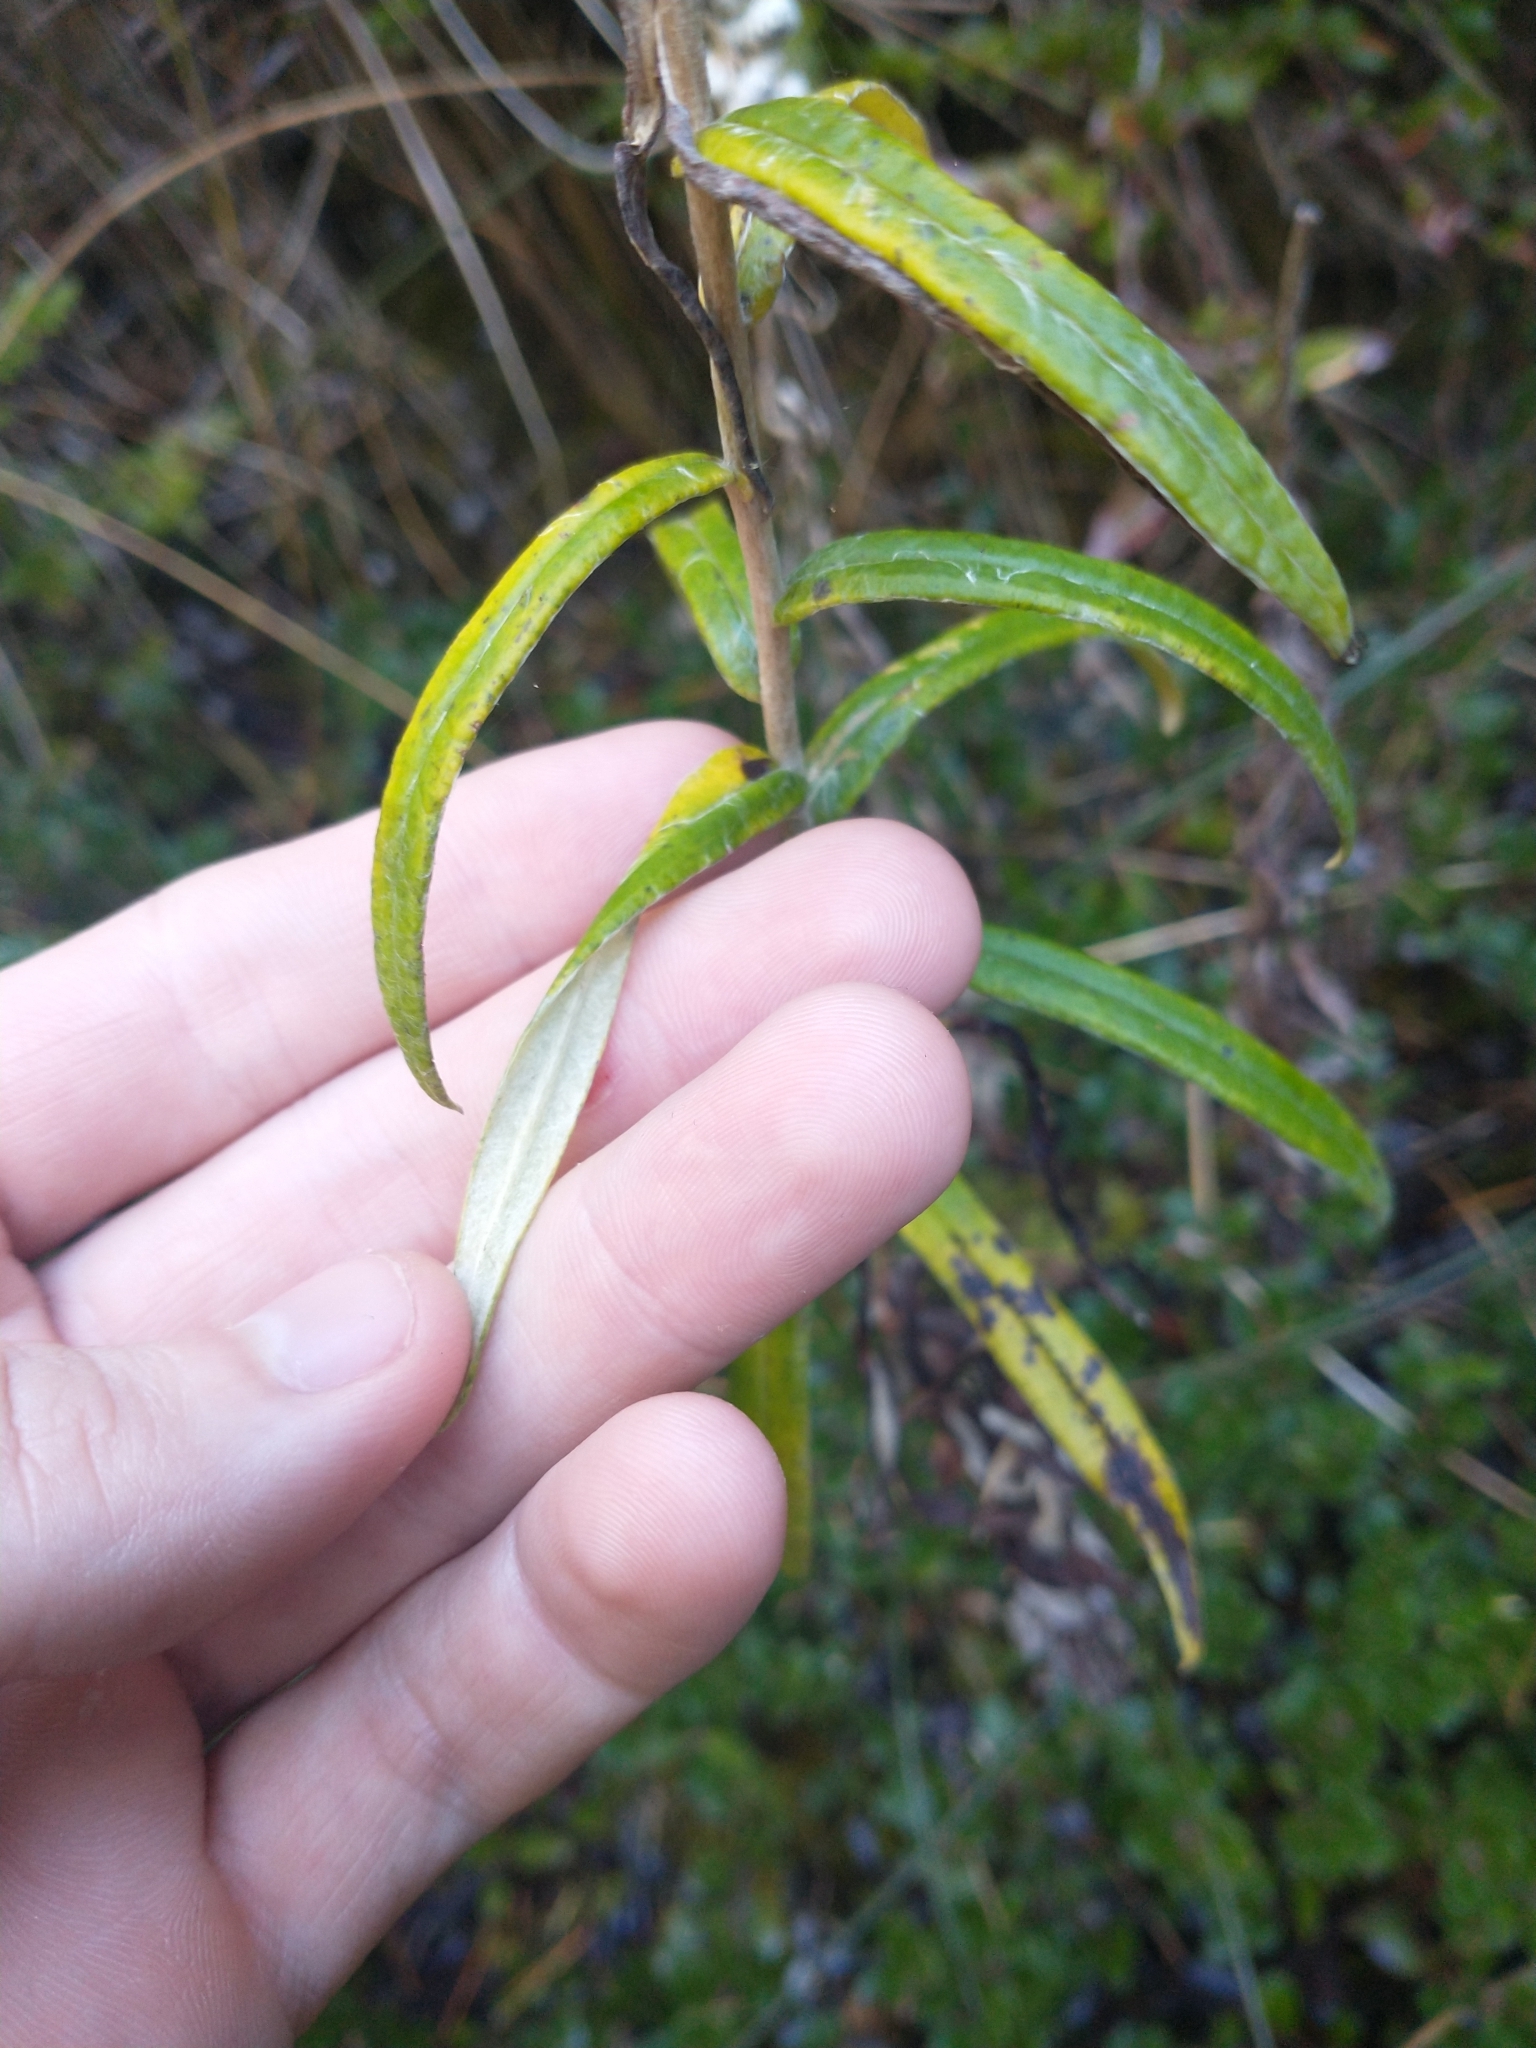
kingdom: Plantae
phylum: Tracheophyta
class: Magnoliopsida
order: Asterales
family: Asteraceae
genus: Anaphalis
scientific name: Anaphalis margaritacea
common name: Pearly everlasting
